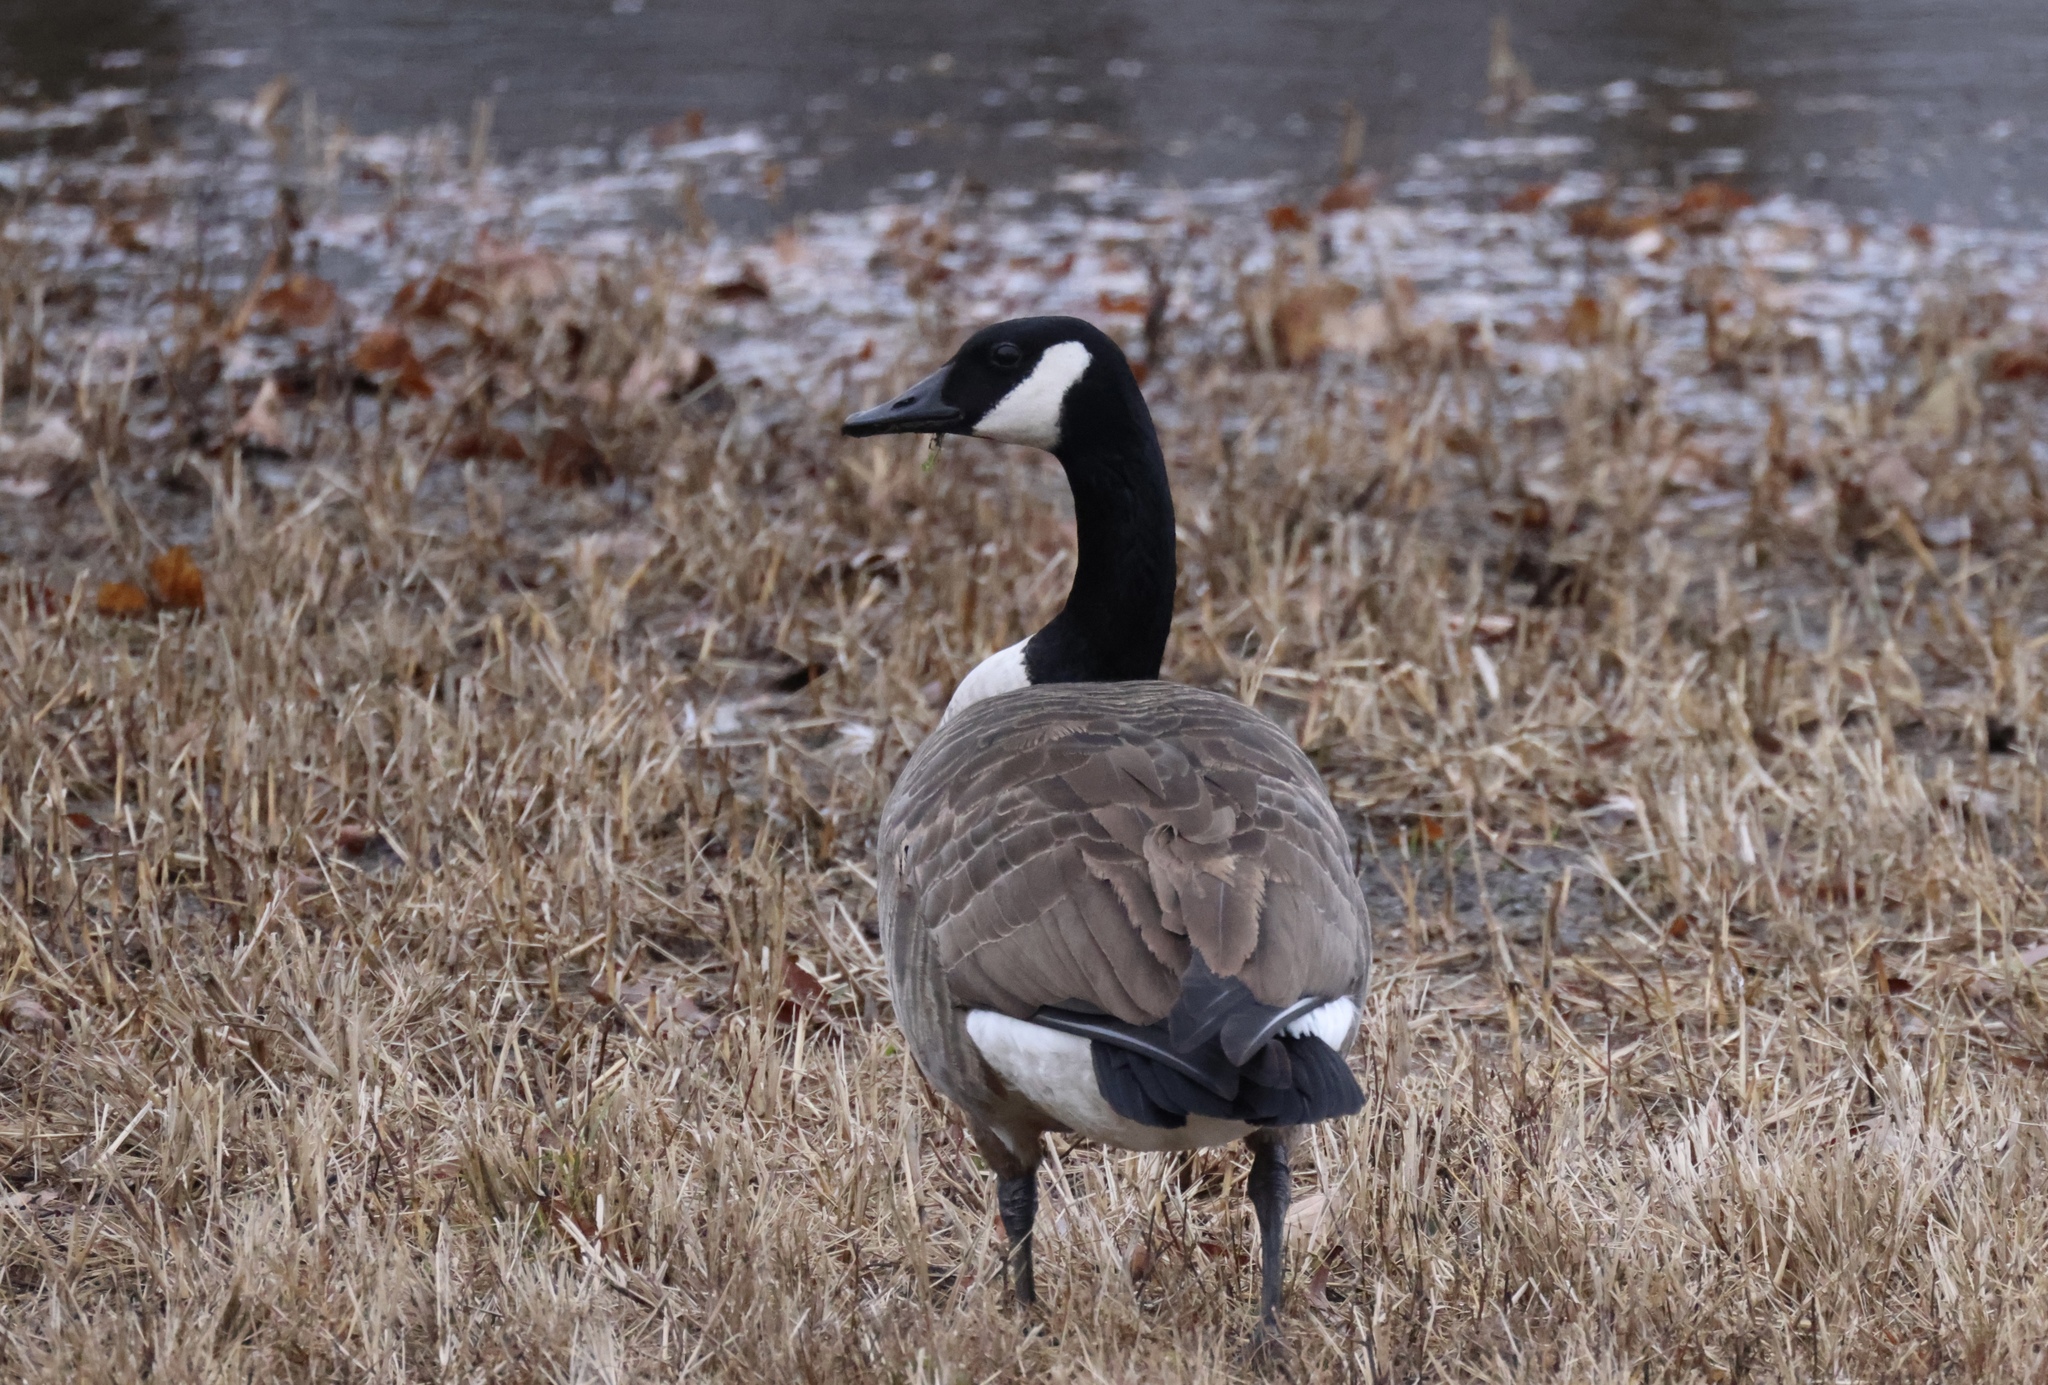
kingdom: Animalia
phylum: Chordata
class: Aves
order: Anseriformes
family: Anatidae
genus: Branta
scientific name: Branta canadensis
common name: Canada goose
